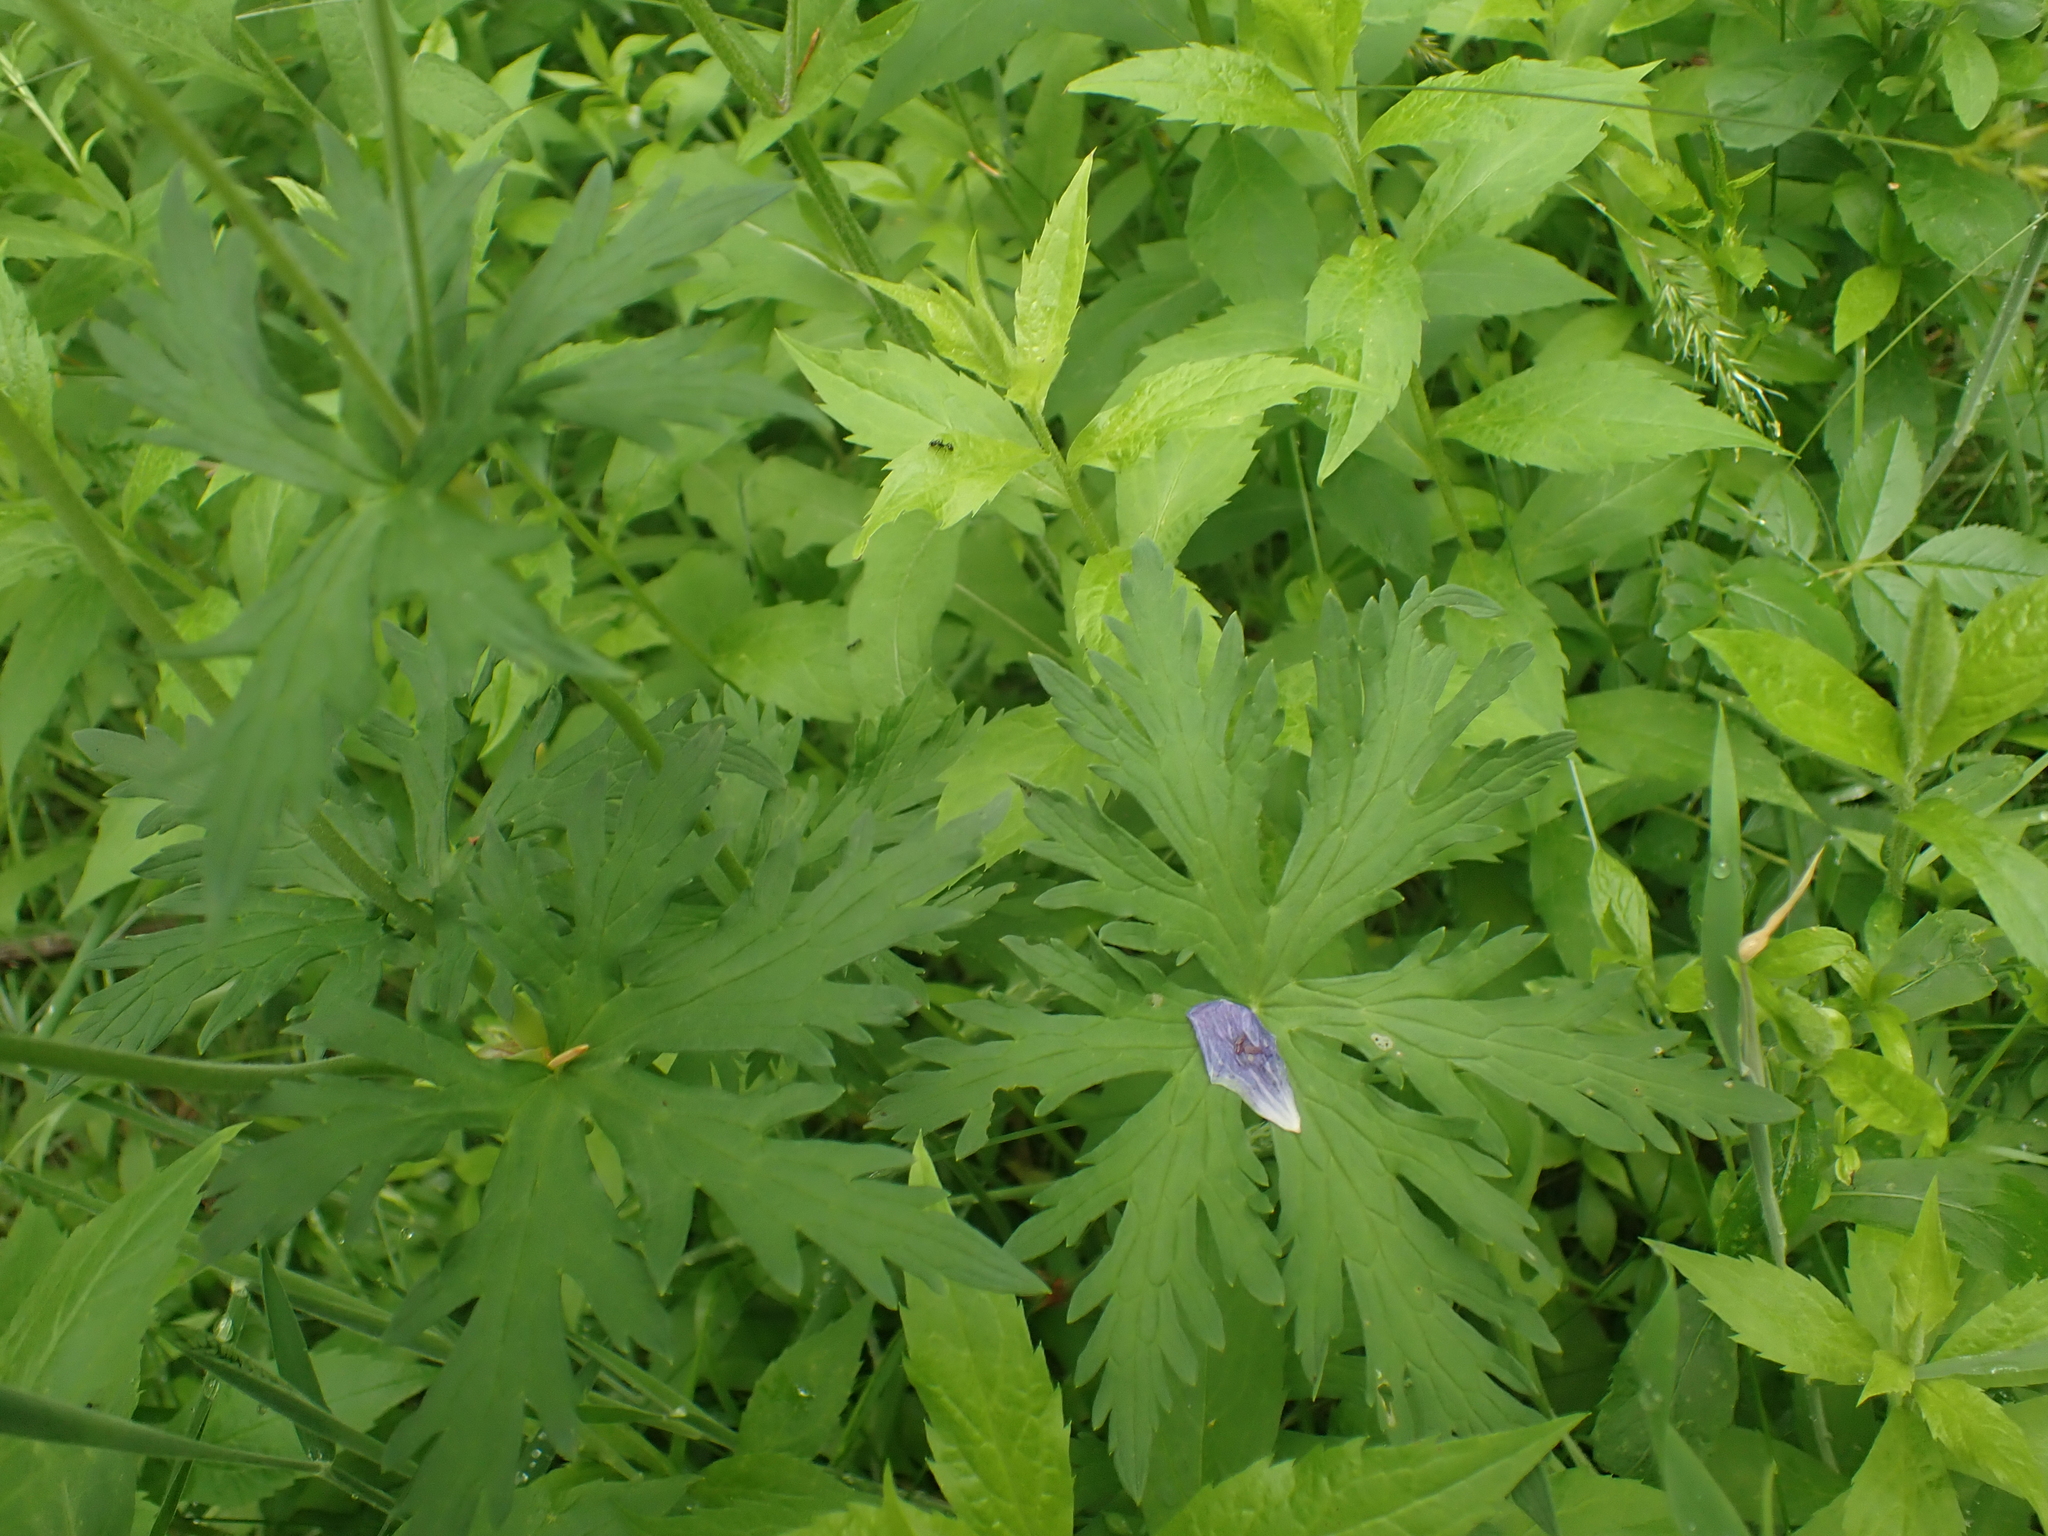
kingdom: Plantae
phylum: Tracheophyta
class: Magnoliopsida
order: Geraniales
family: Geraniaceae
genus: Geranium
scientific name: Geranium pratense
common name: Meadow crane's-bill
